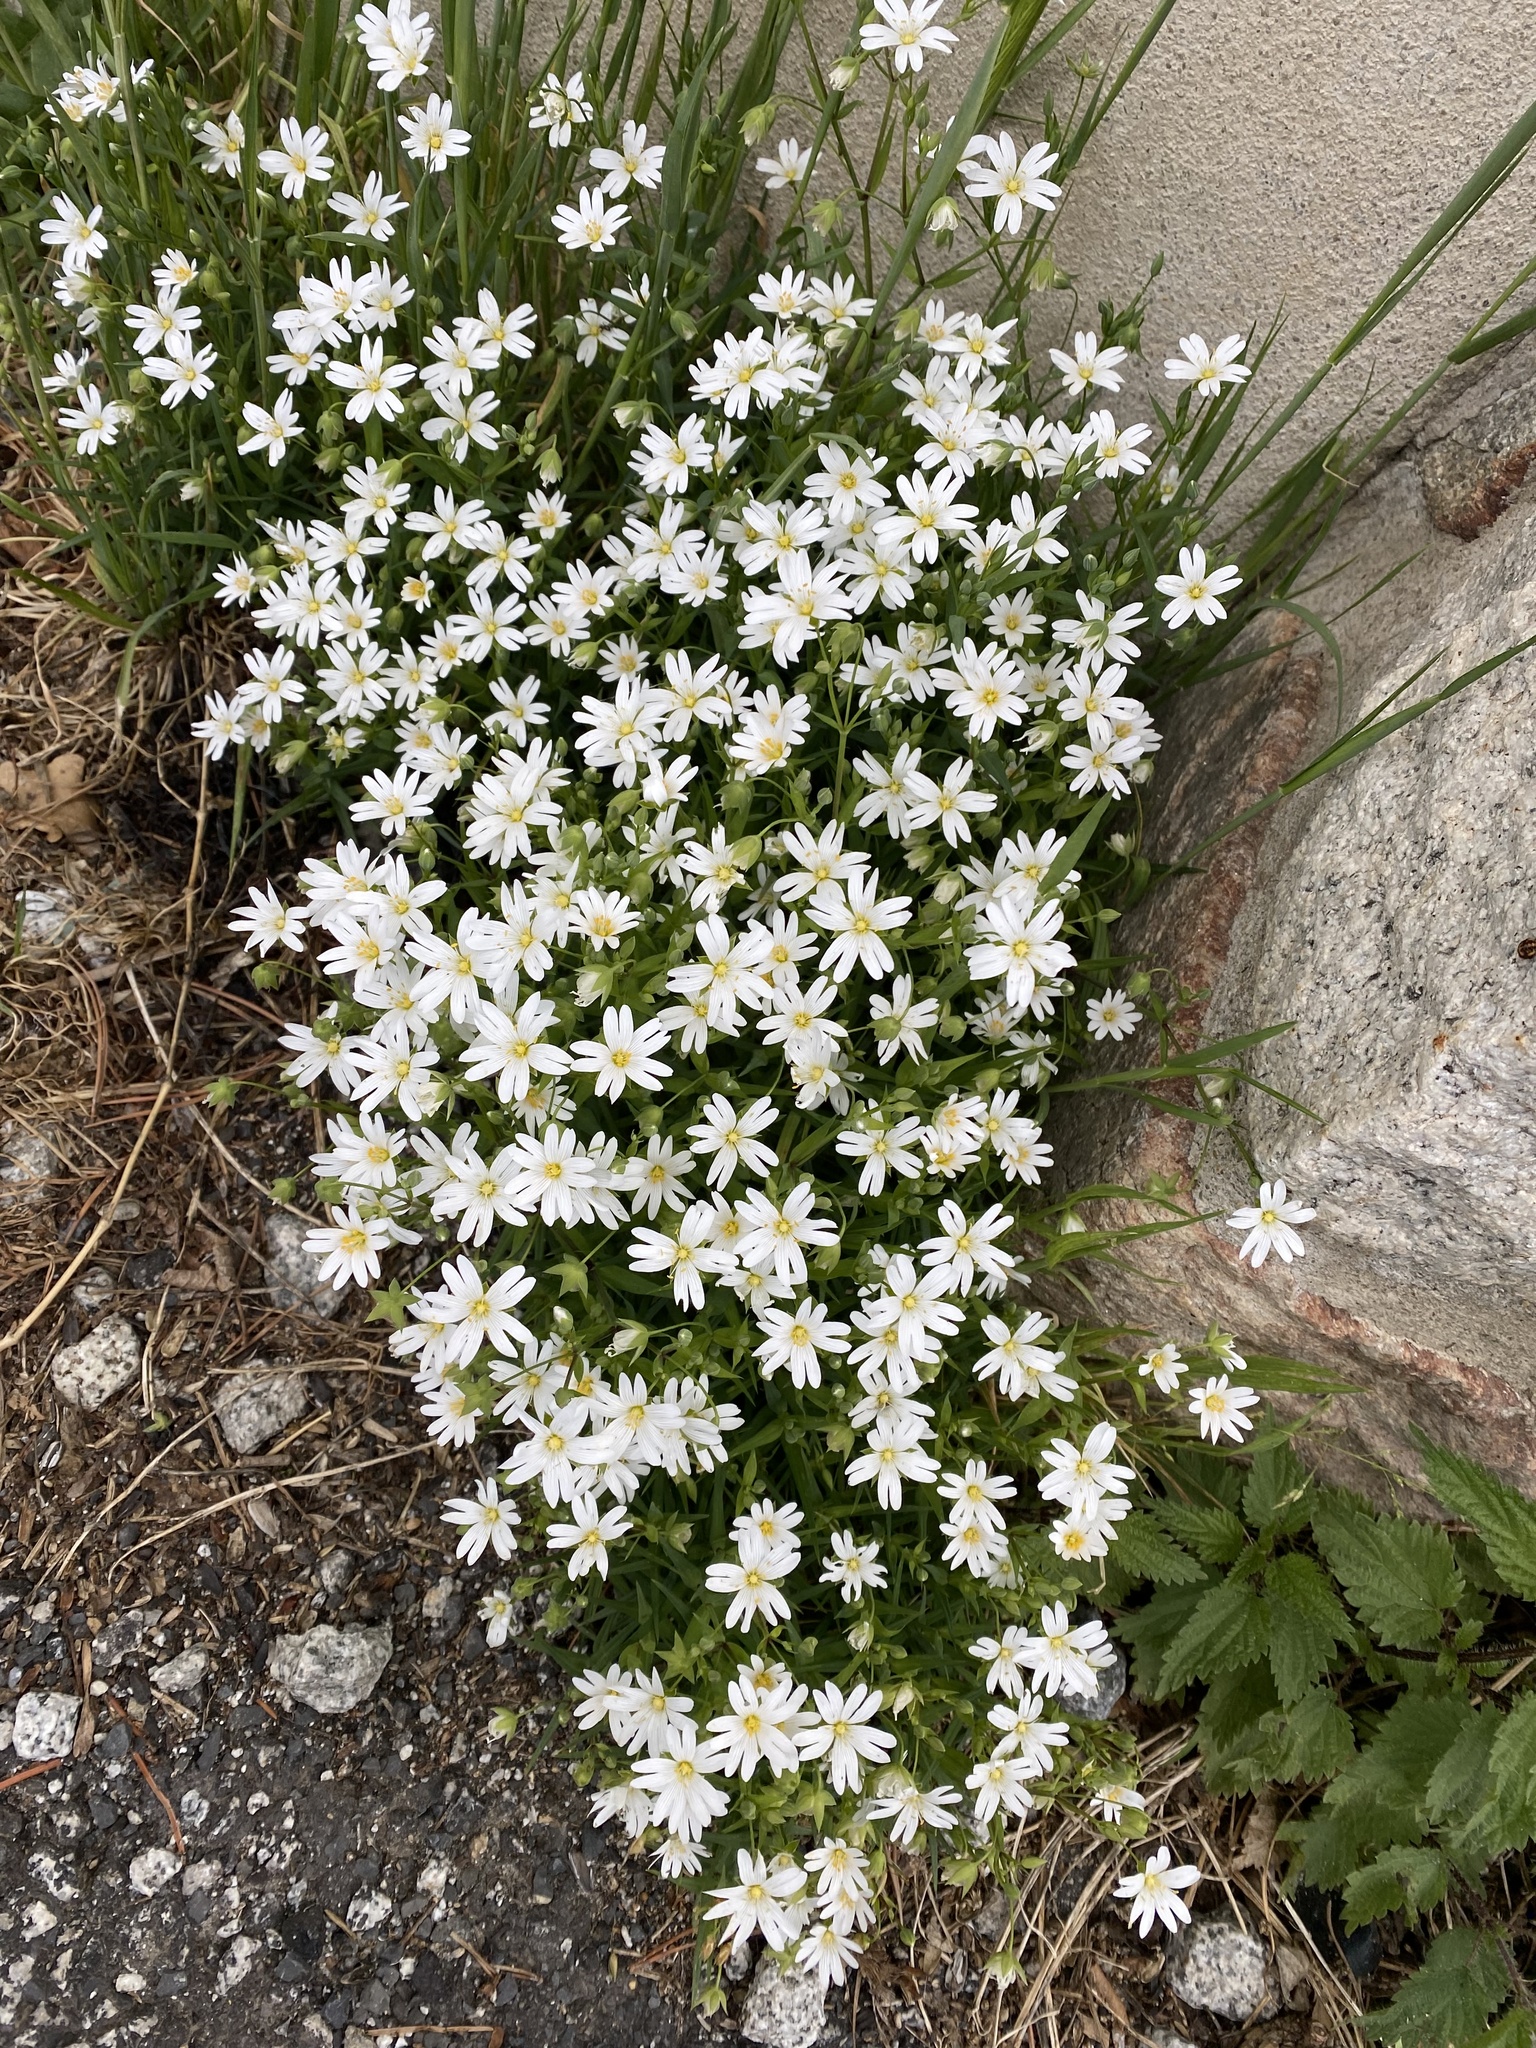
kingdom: Plantae
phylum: Tracheophyta
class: Magnoliopsida
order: Caryophyllales
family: Caryophyllaceae
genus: Rabelera
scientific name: Rabelera holostea
